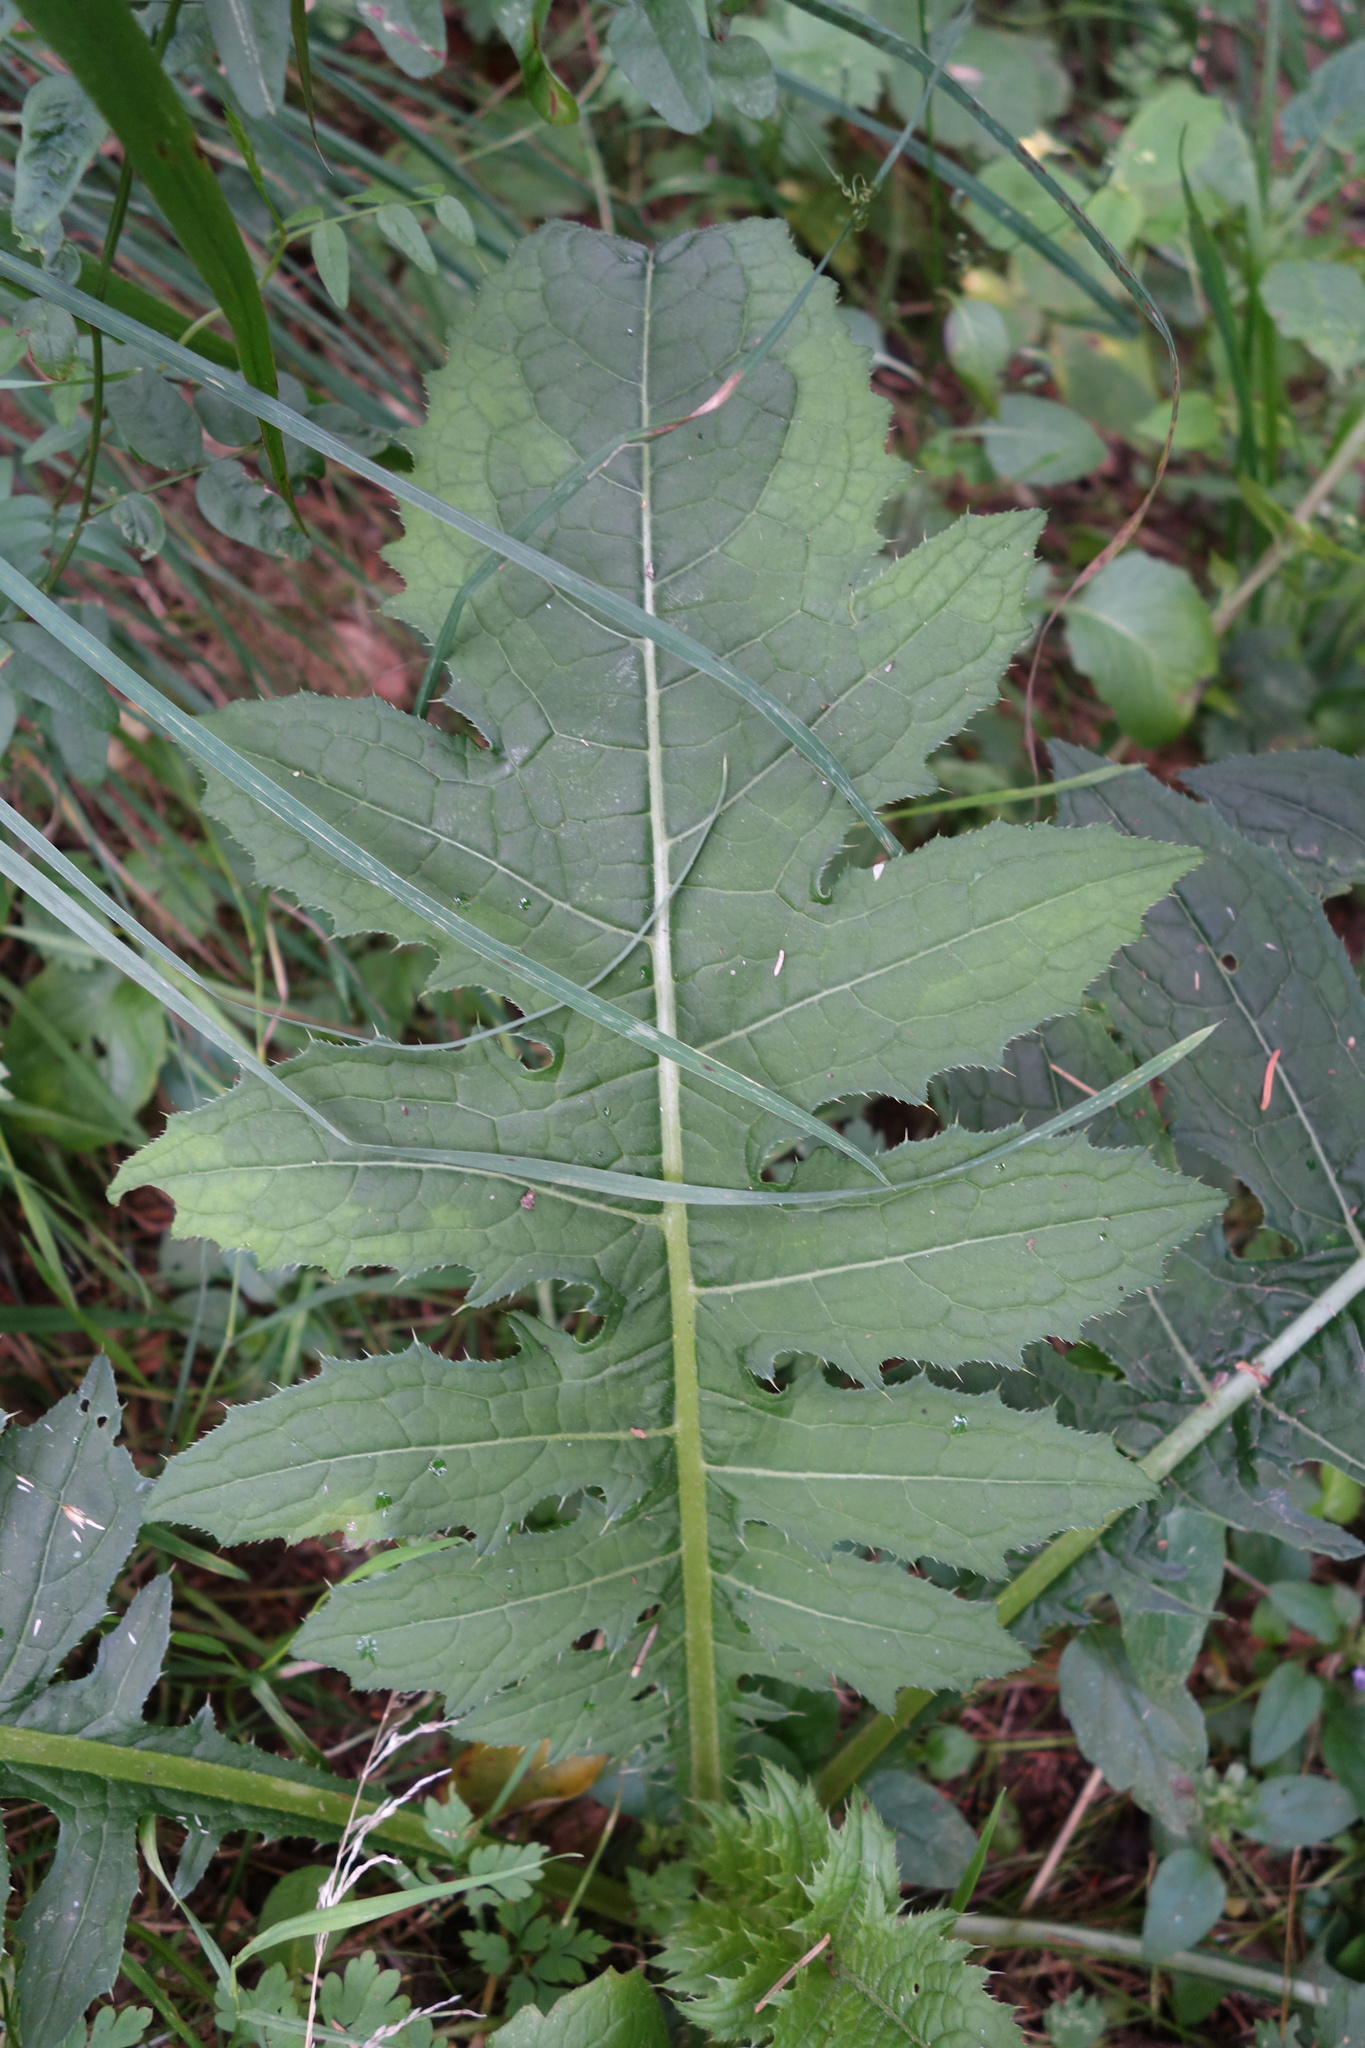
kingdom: Plantae
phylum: Tracheophyta
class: Magnoliopsida
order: Asterales
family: Asteraceae
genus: Cirsium
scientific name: Cirsium oleraceum
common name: Cabbage thistle
